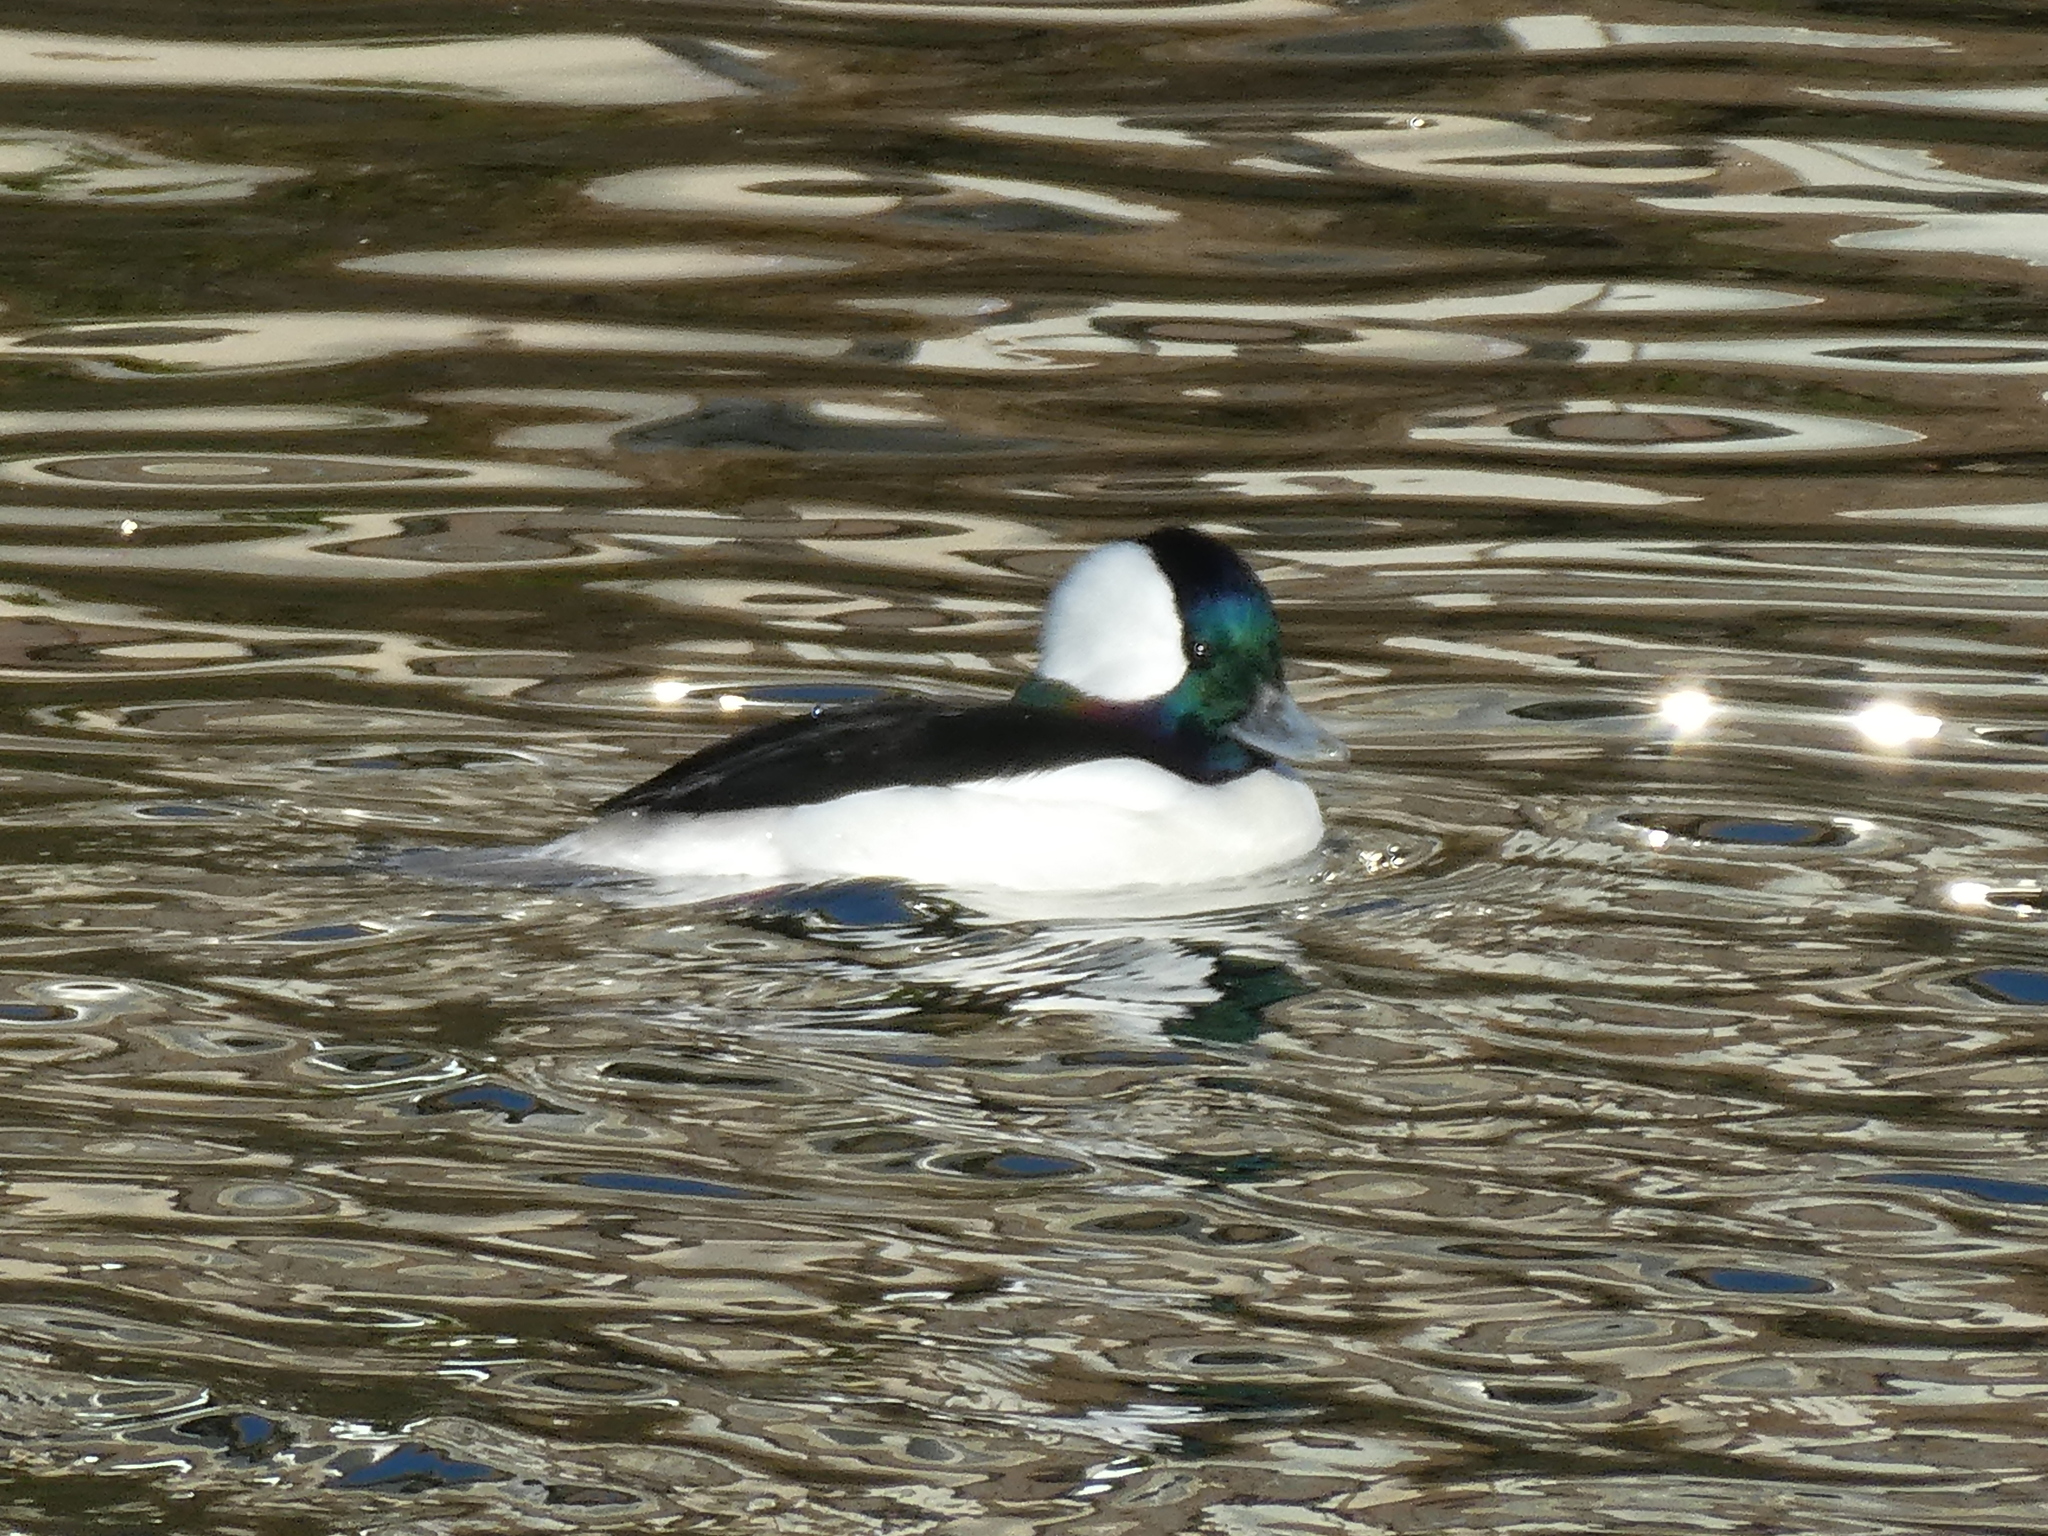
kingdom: Animalia
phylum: Chordata
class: Aves
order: Anseriformes
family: Anatidae
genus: Bucephala
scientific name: Bucephala albeola
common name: Bufflehead
